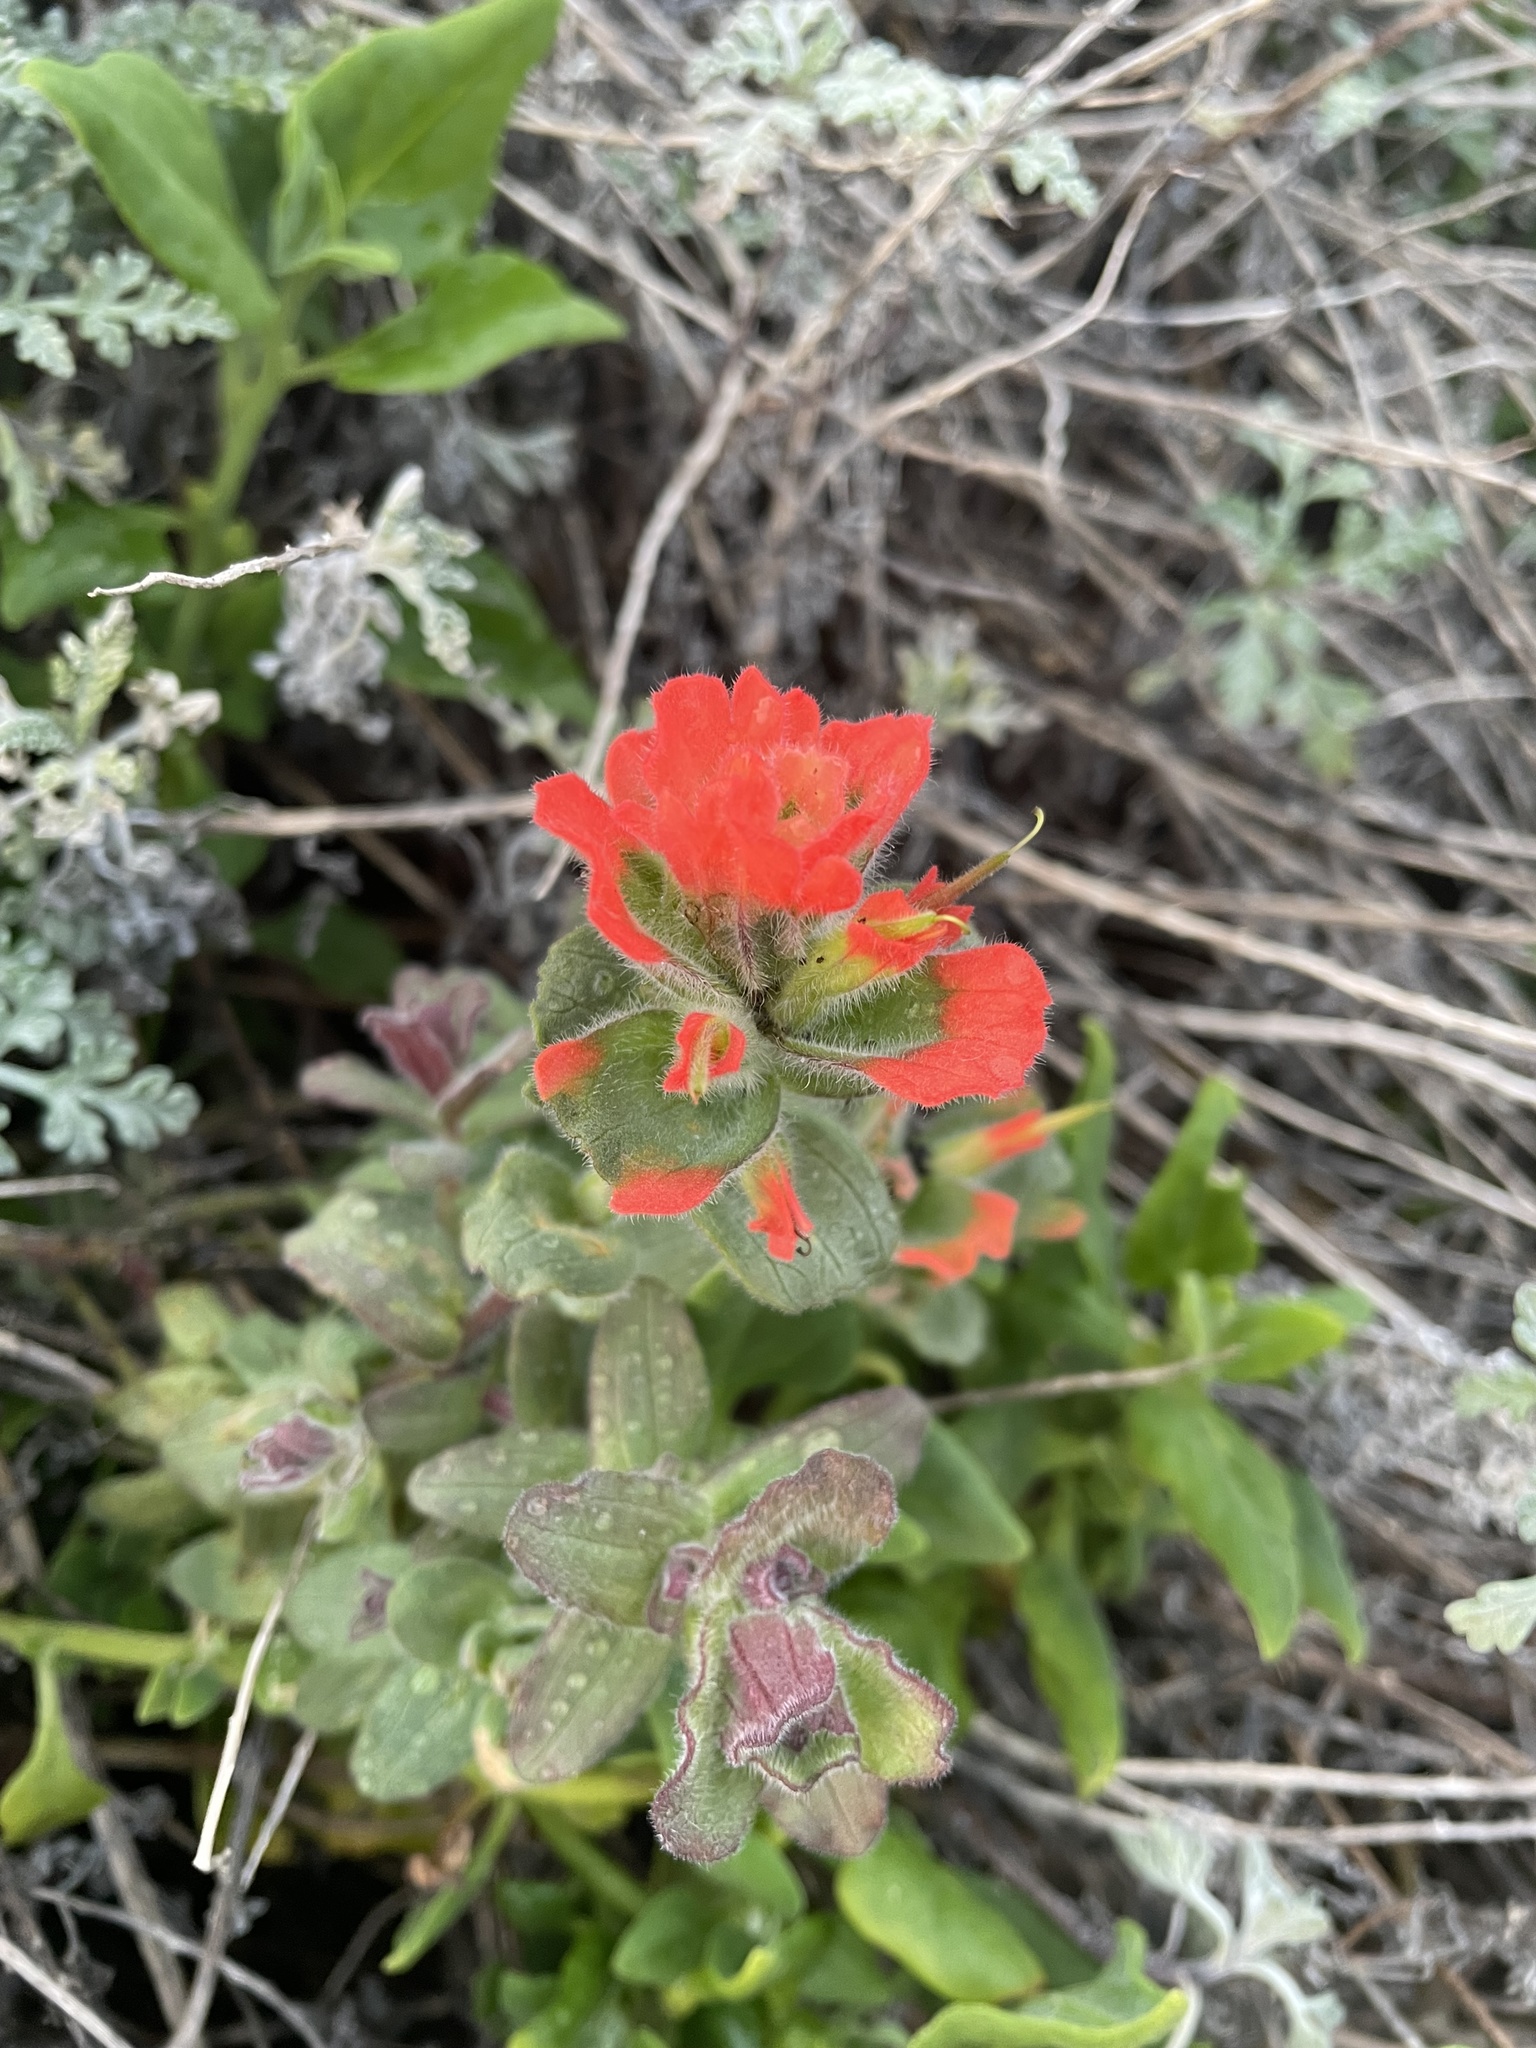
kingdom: Plantae
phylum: Tracheophyta
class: Magnoliopsida
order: Lamiales
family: Orobanchaceae
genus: Castilleja
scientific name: Castilleja latifolia
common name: Monterey indian paintbrush
